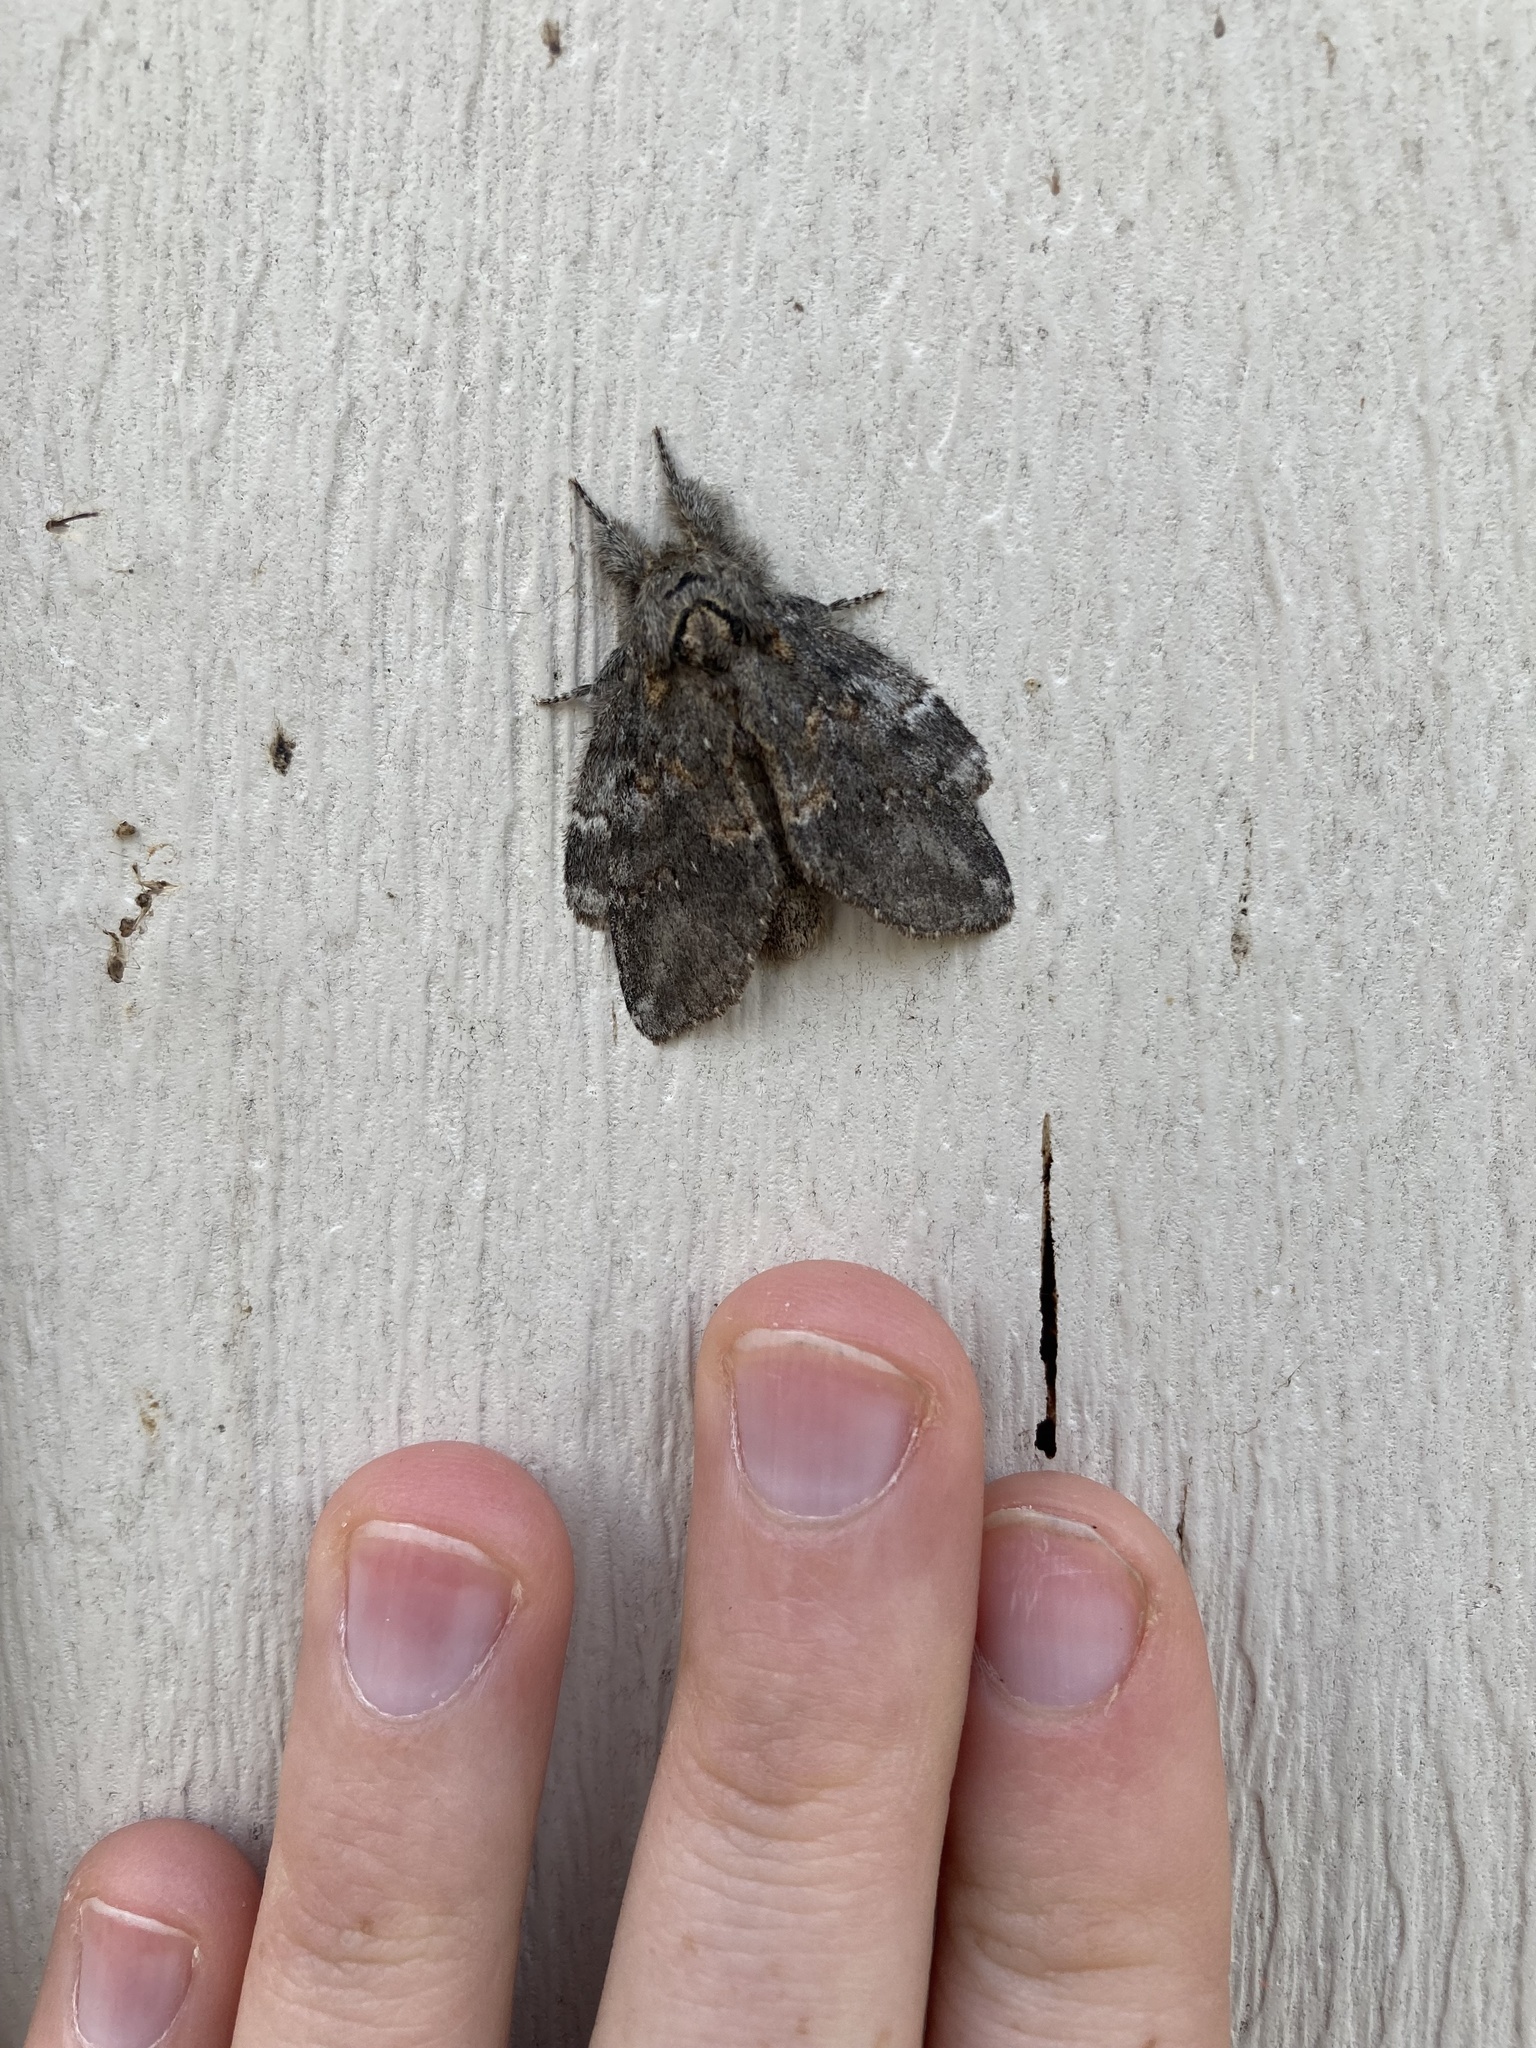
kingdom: Animalia
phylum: Arthropoda
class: Insecta
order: Lepidoptera
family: Notodontidae
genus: Peridea
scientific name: Peridea angulosa
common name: Angulose prominent
